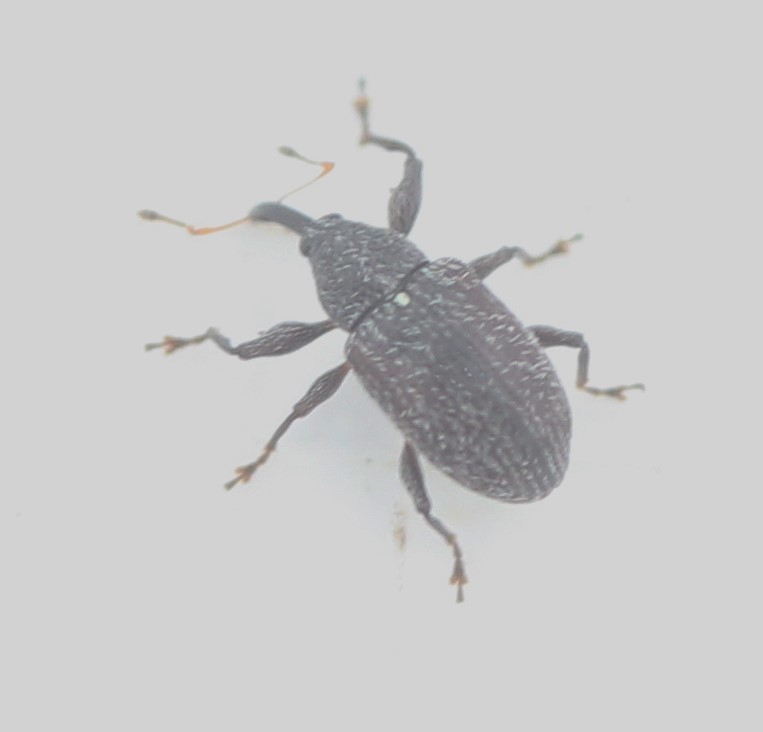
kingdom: Animalia
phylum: Arthropoda
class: Insecta
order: Coleoptera
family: Curculionidae
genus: Anthonomus
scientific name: Anthonomus suturalis
